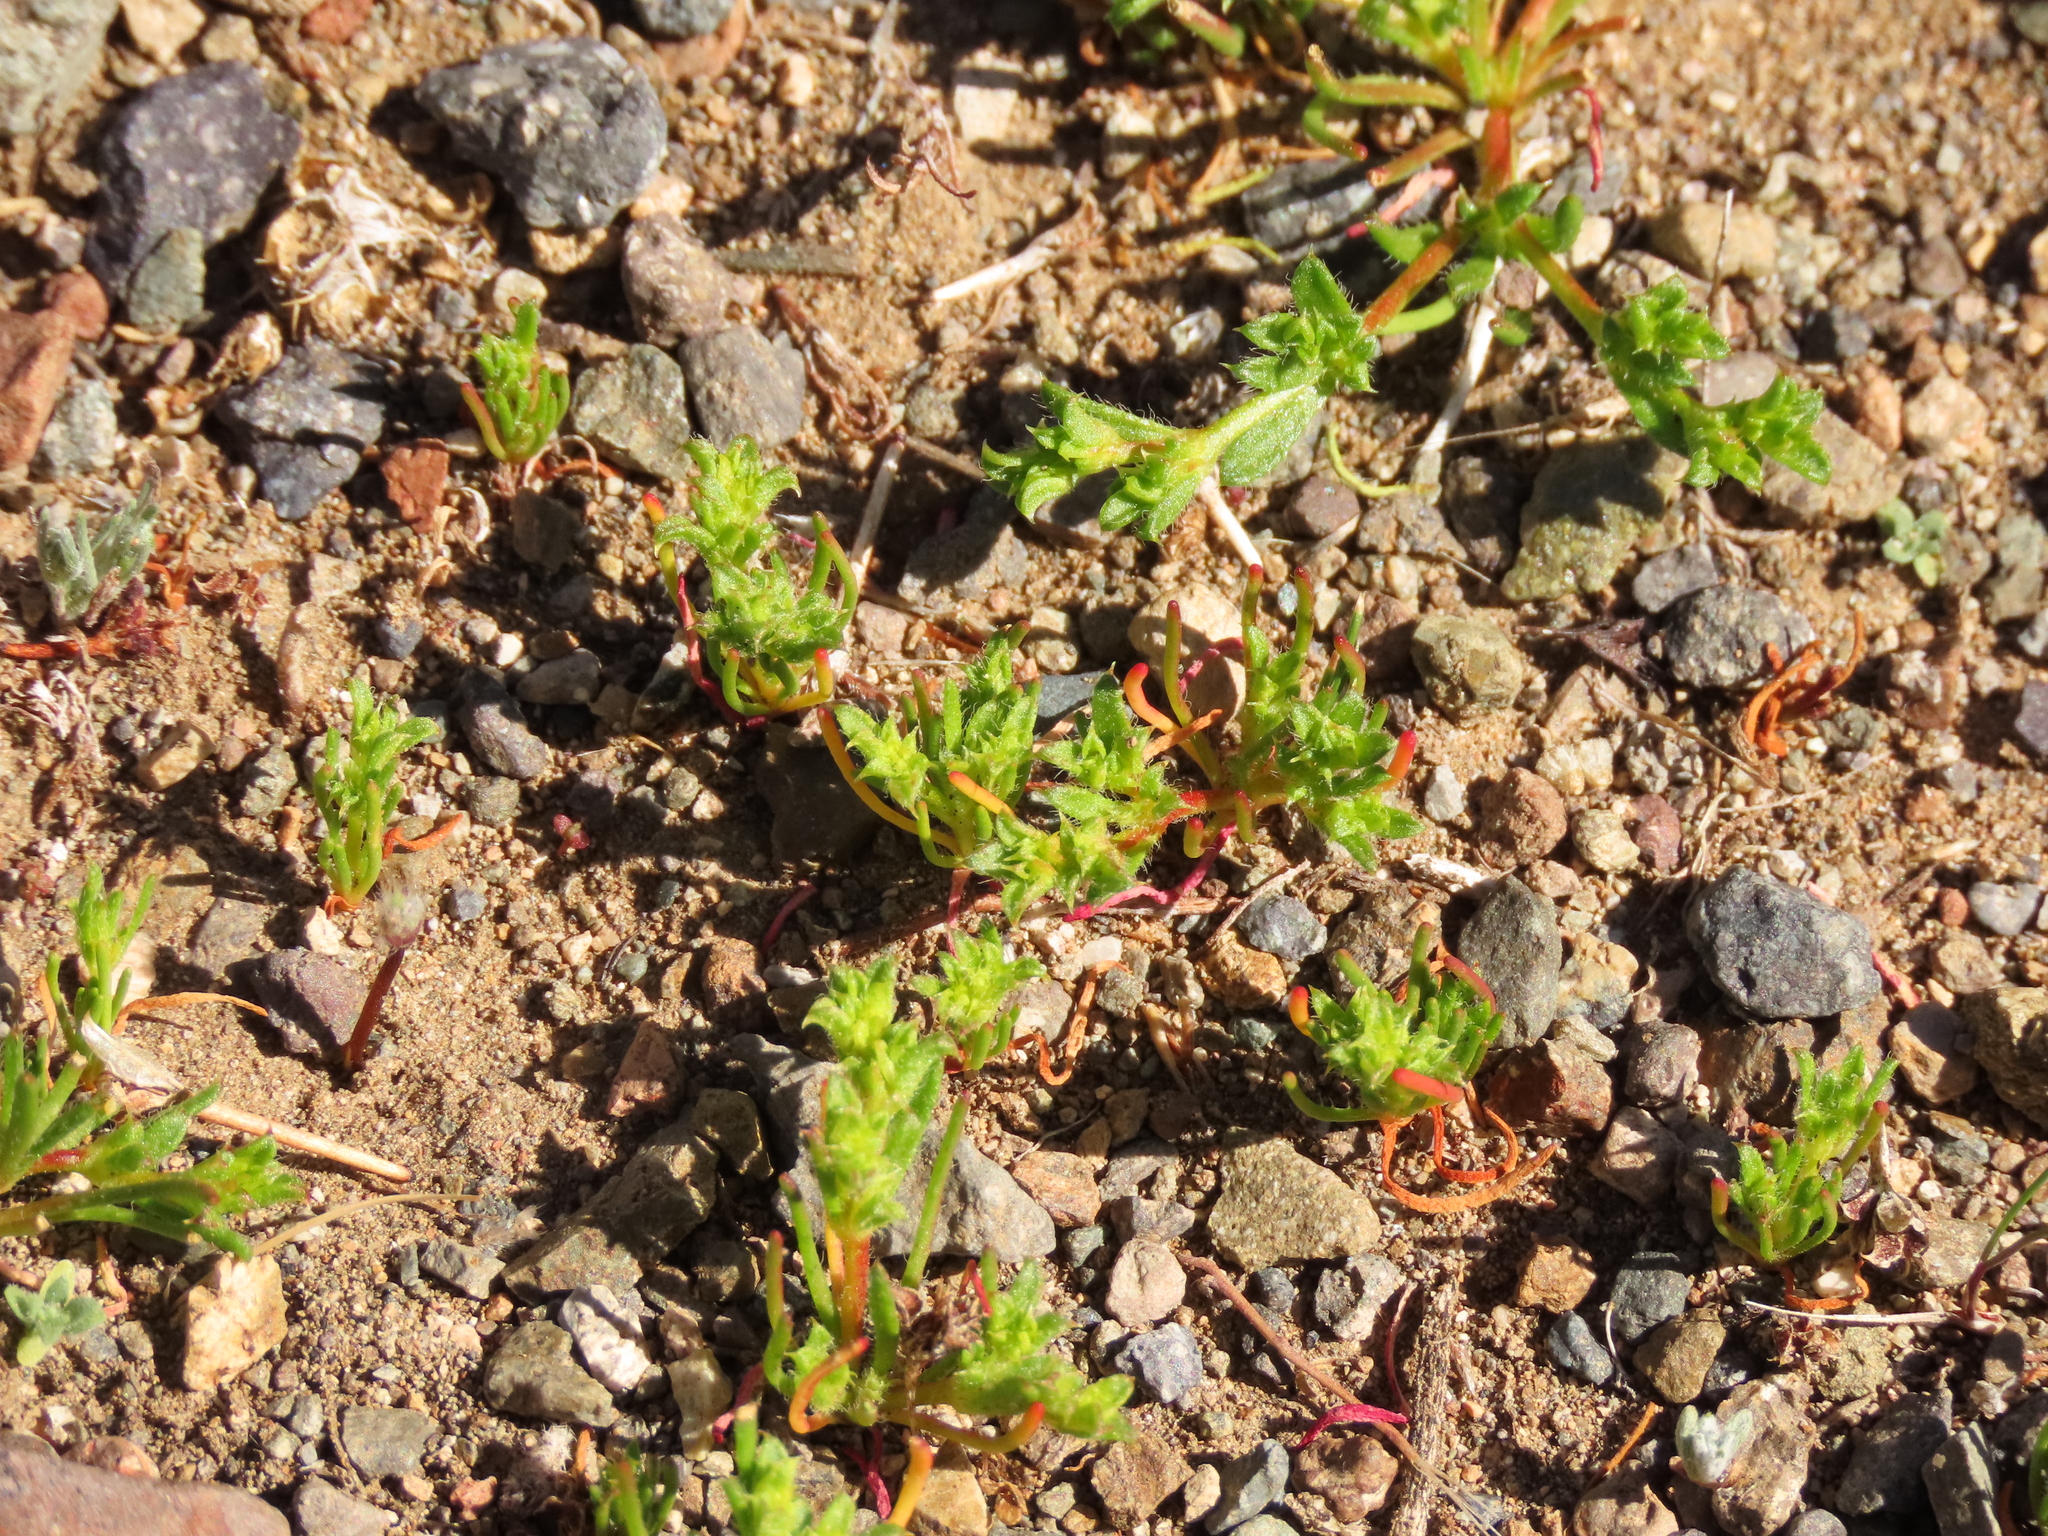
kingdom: Plantae
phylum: Tracheophyta
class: Magnoliopsida
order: Caryophyllales
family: Polygonaceae
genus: Lastarriaea
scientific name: Lastarriaea chilensis
